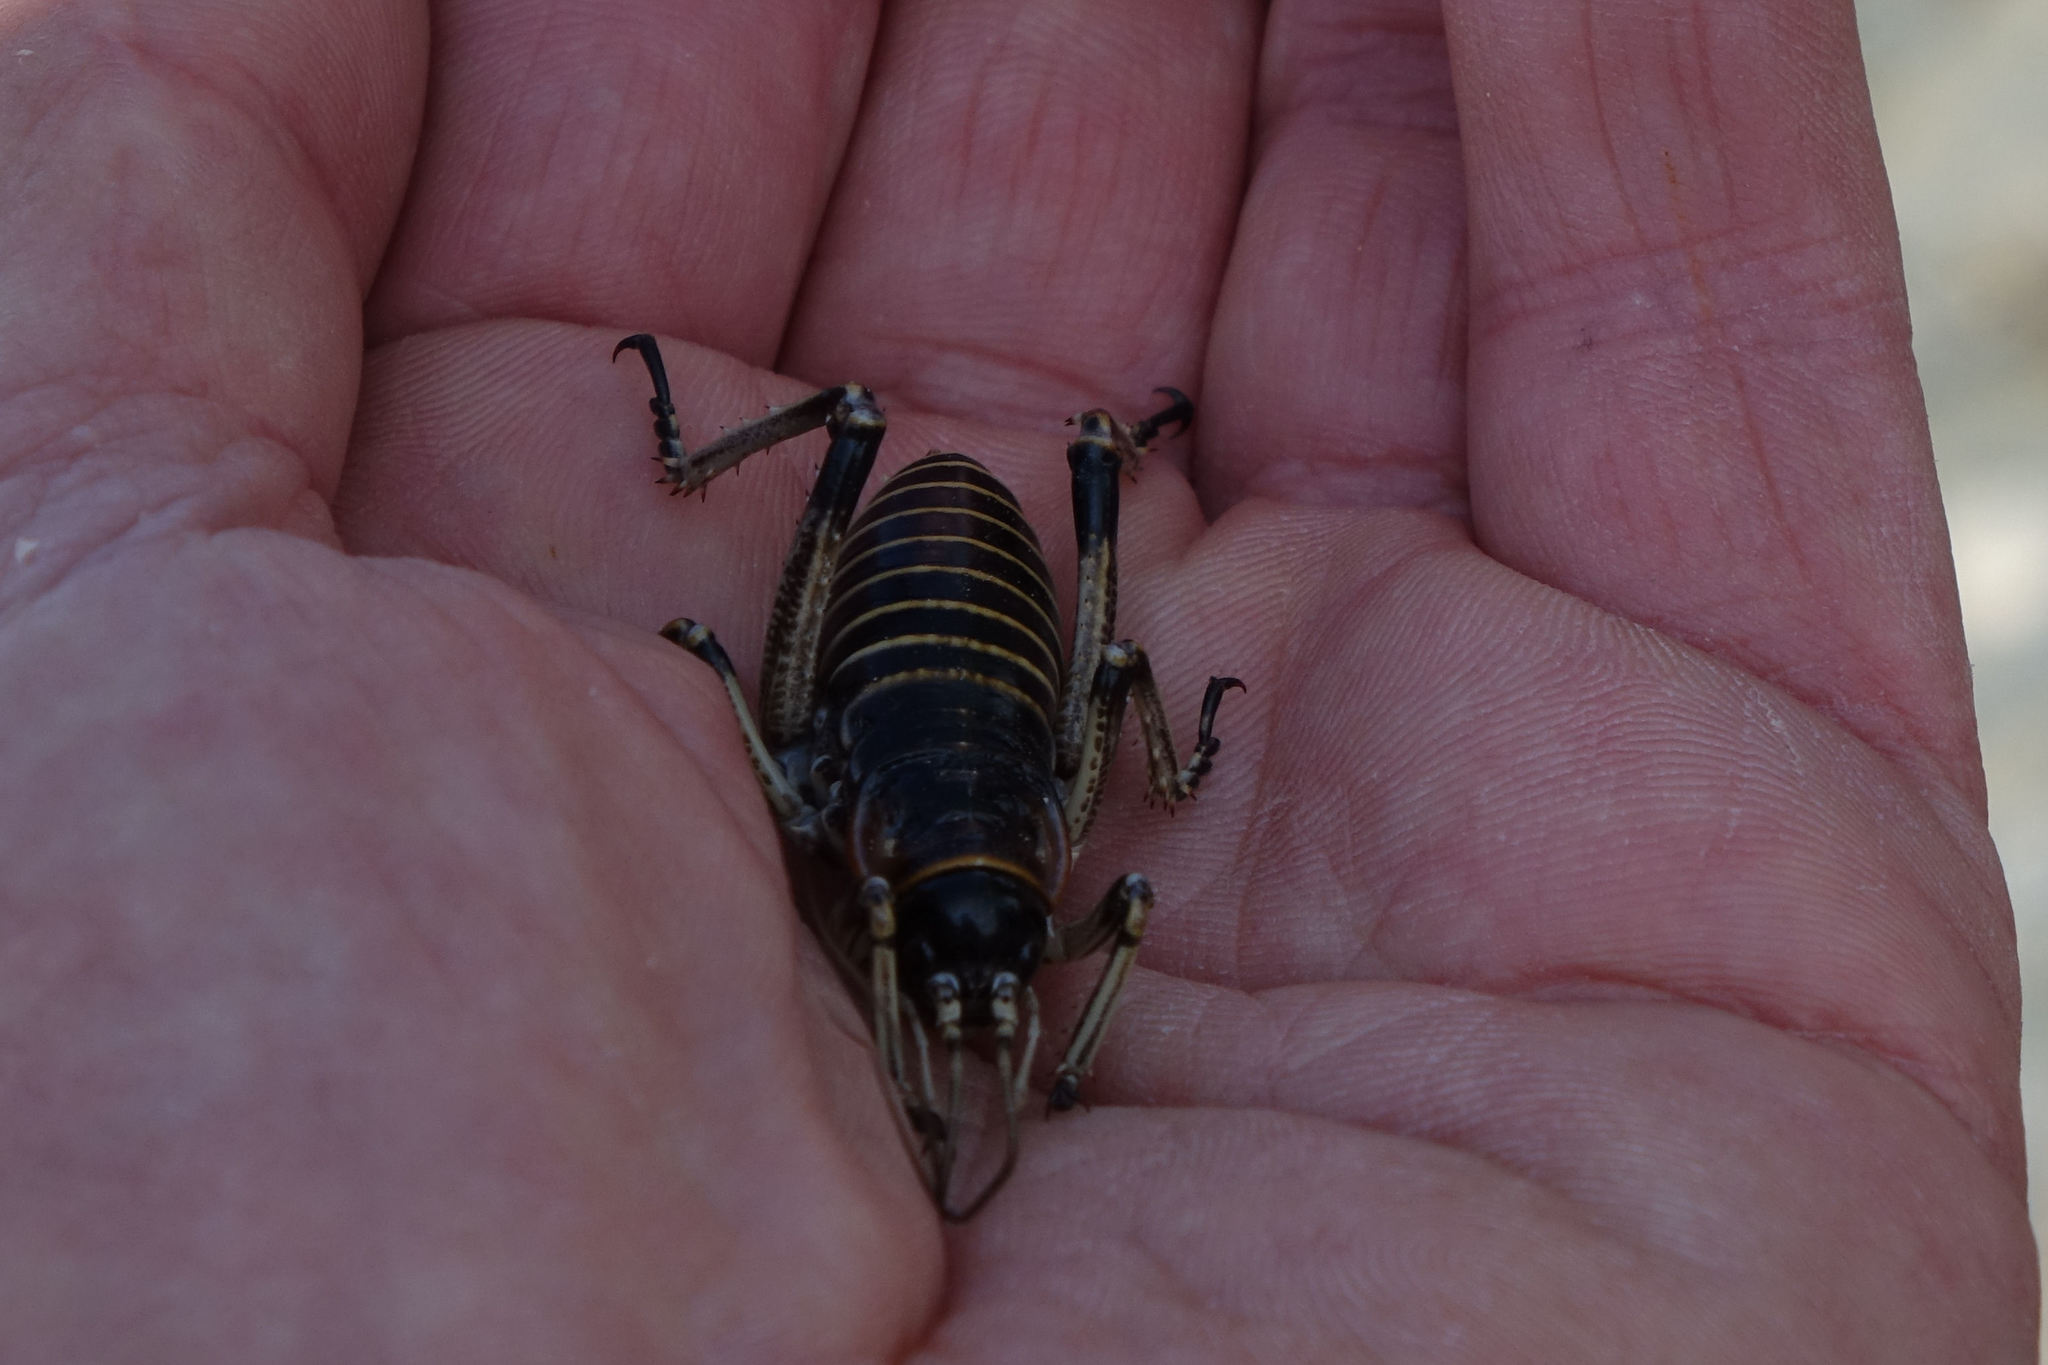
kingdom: Animalia
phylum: Arthropoda
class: Insecta
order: Orthoptera
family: Anostostomatidae
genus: Deinacrida
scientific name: Deinacrida connectens
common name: Scree weta
